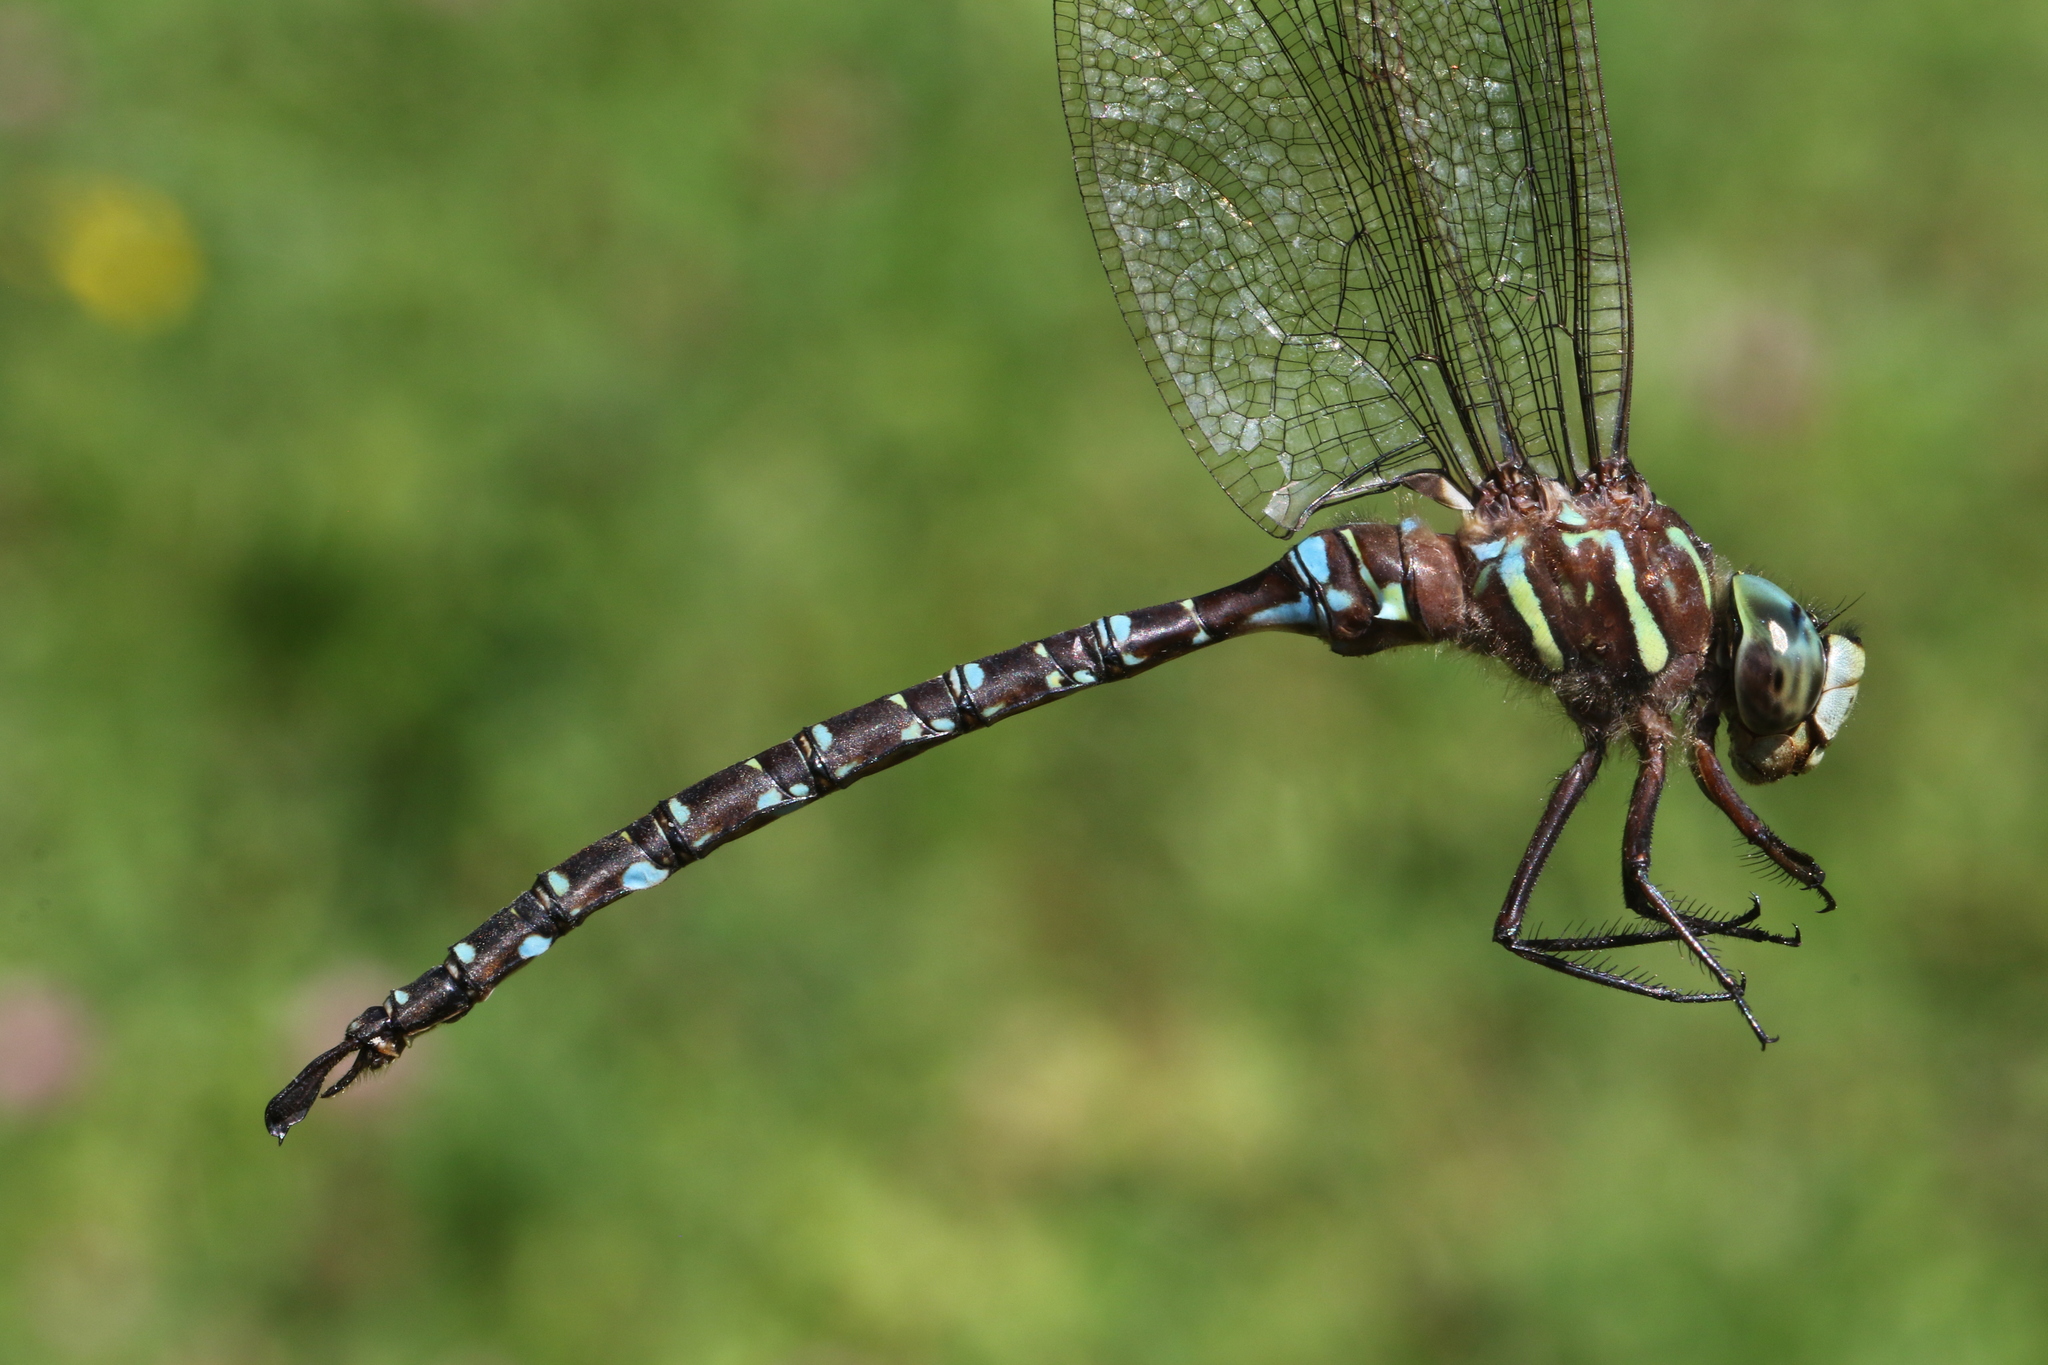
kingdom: Animalia
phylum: Arthropoda
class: Insecta
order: Odonata
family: Aeshnidae
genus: Aeshna
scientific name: Aeshna umbrosa
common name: Shadow darner
